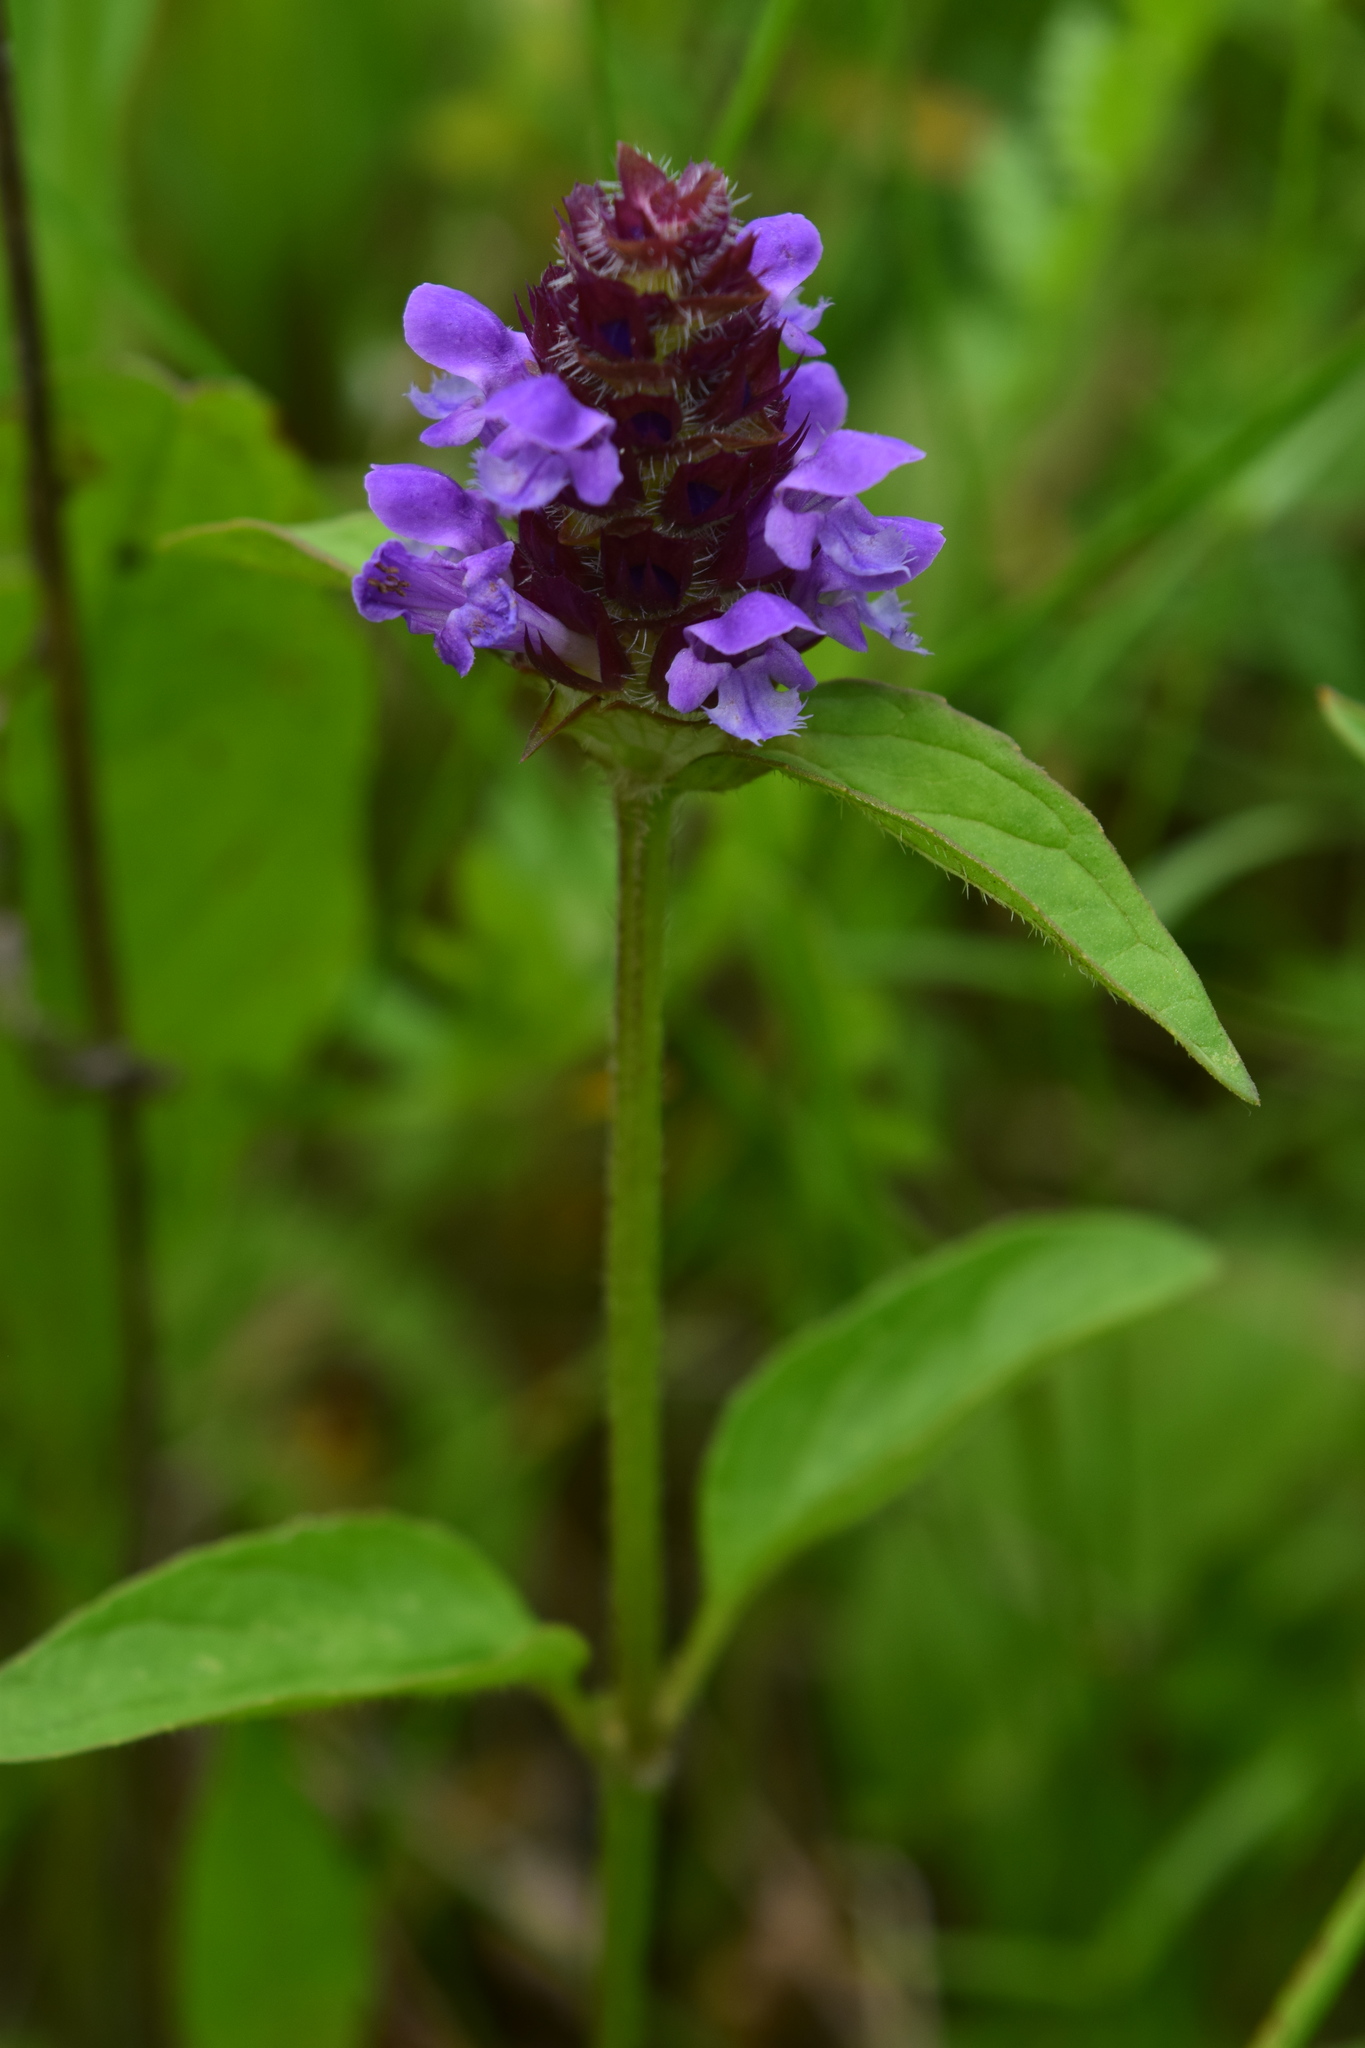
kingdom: Plantae
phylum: Tracheophyta
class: Magnoliopsida
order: Lamiales
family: Lamiaceae
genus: Prunella
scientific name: Prunella vulgaris
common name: Heal-all
